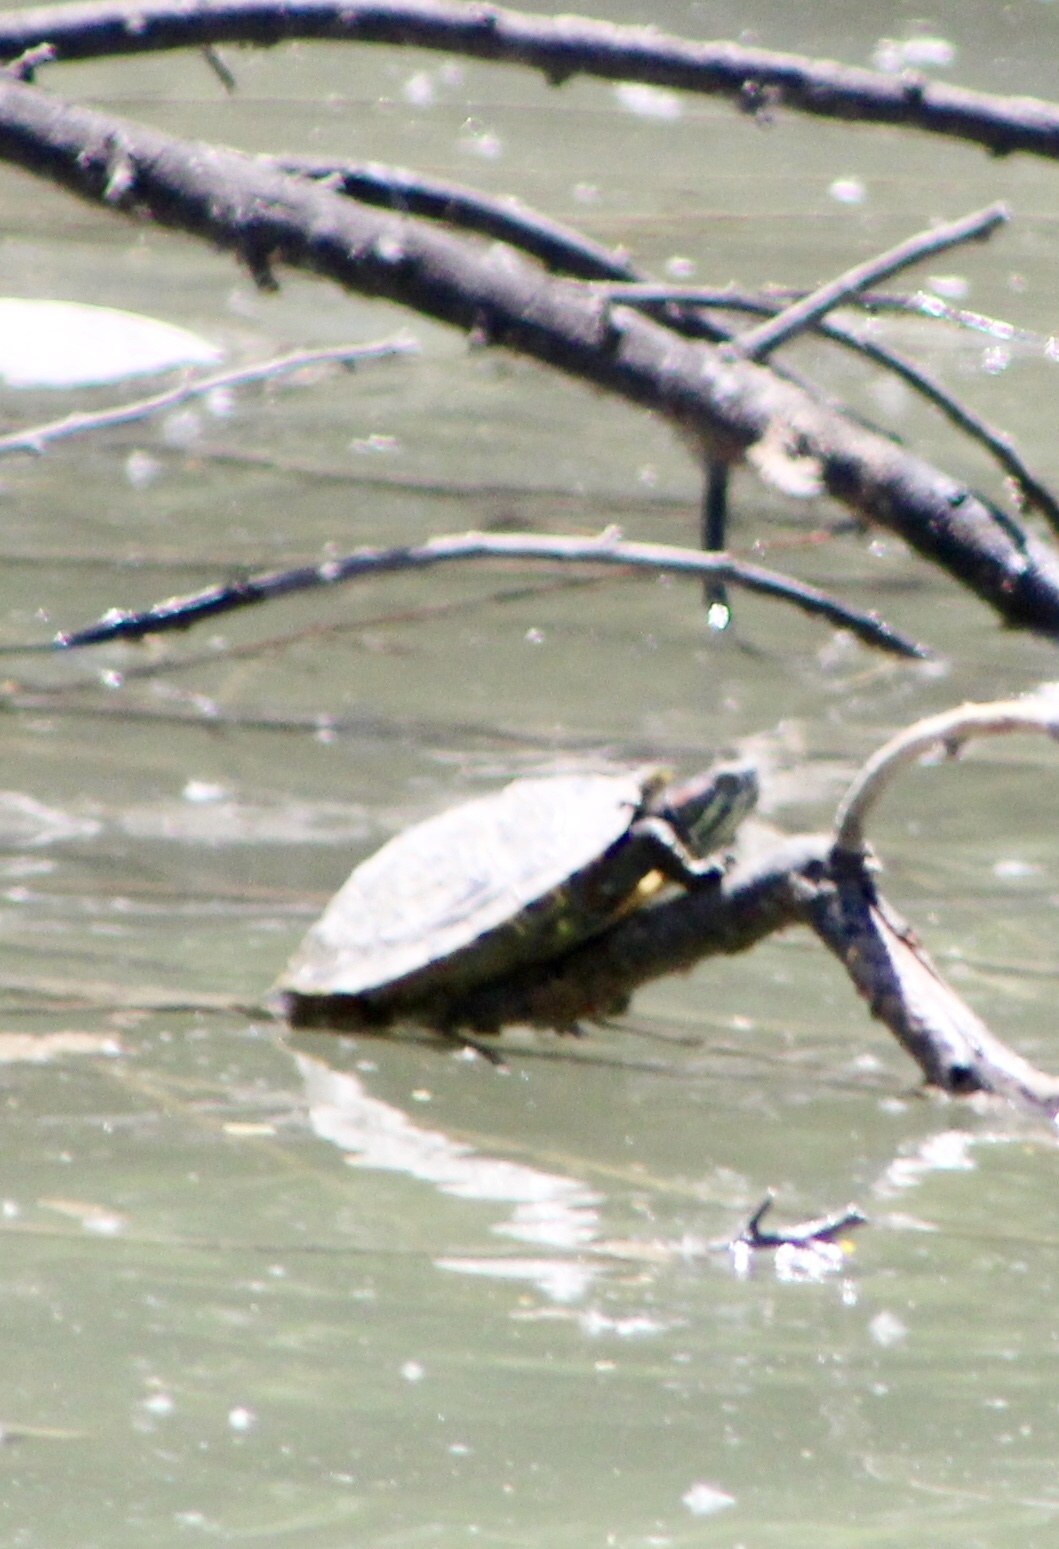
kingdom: Animalia
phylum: Chordata
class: Testudines
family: Emydidae
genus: Trachemys
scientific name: Trachemys scripta
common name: Slider
